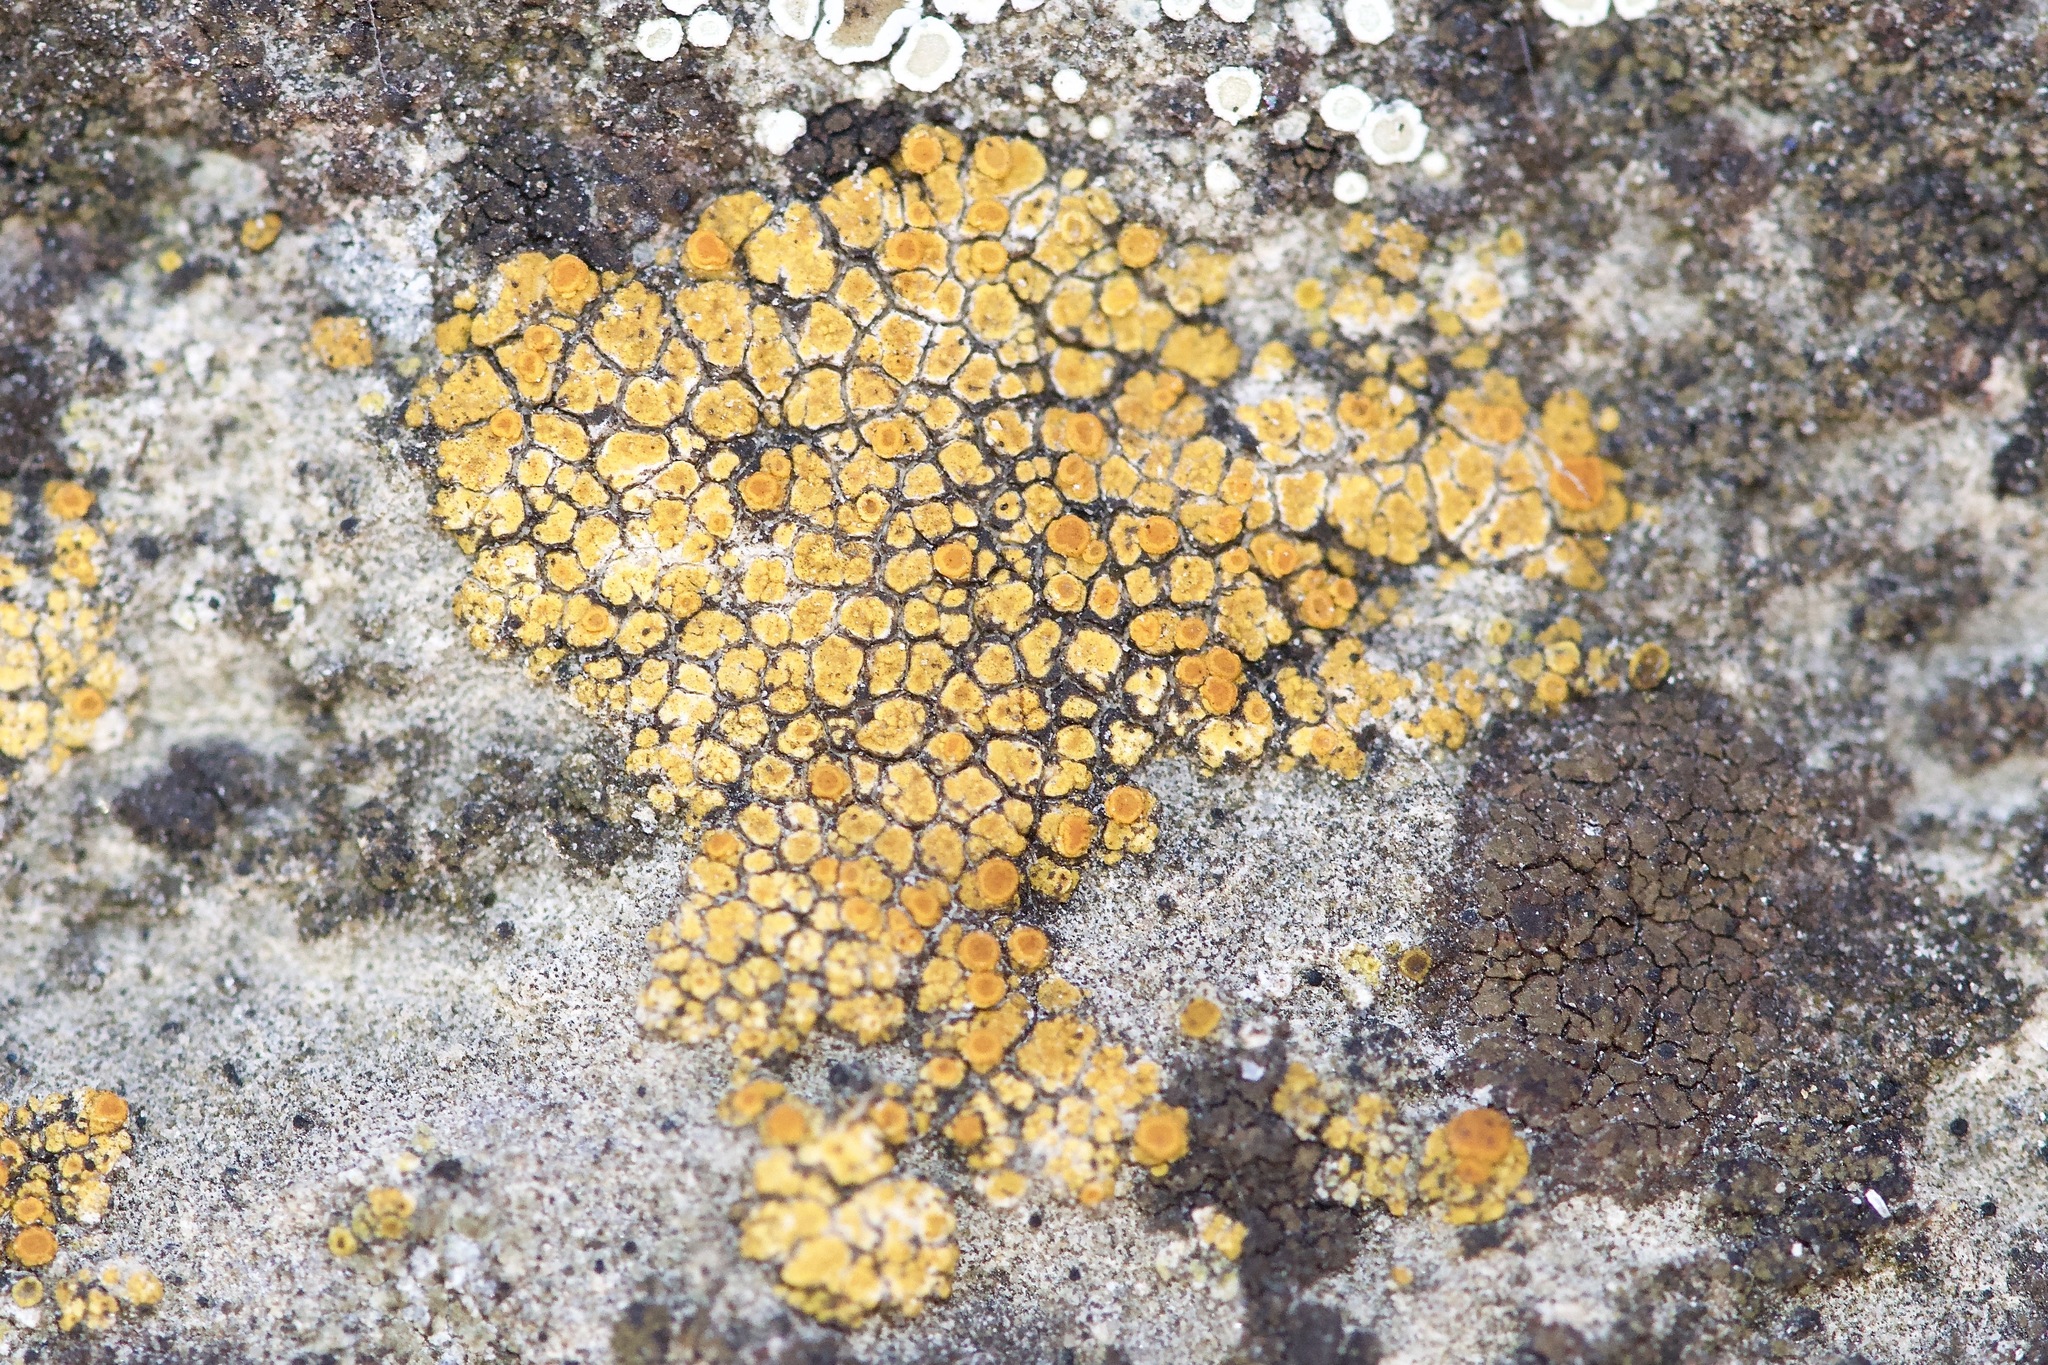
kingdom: Fungi
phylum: Ascomycota
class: Lecanoromycetes
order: Teloschistales
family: Teloschistaceae
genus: Squamulea
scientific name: Squamulea subsoluta
